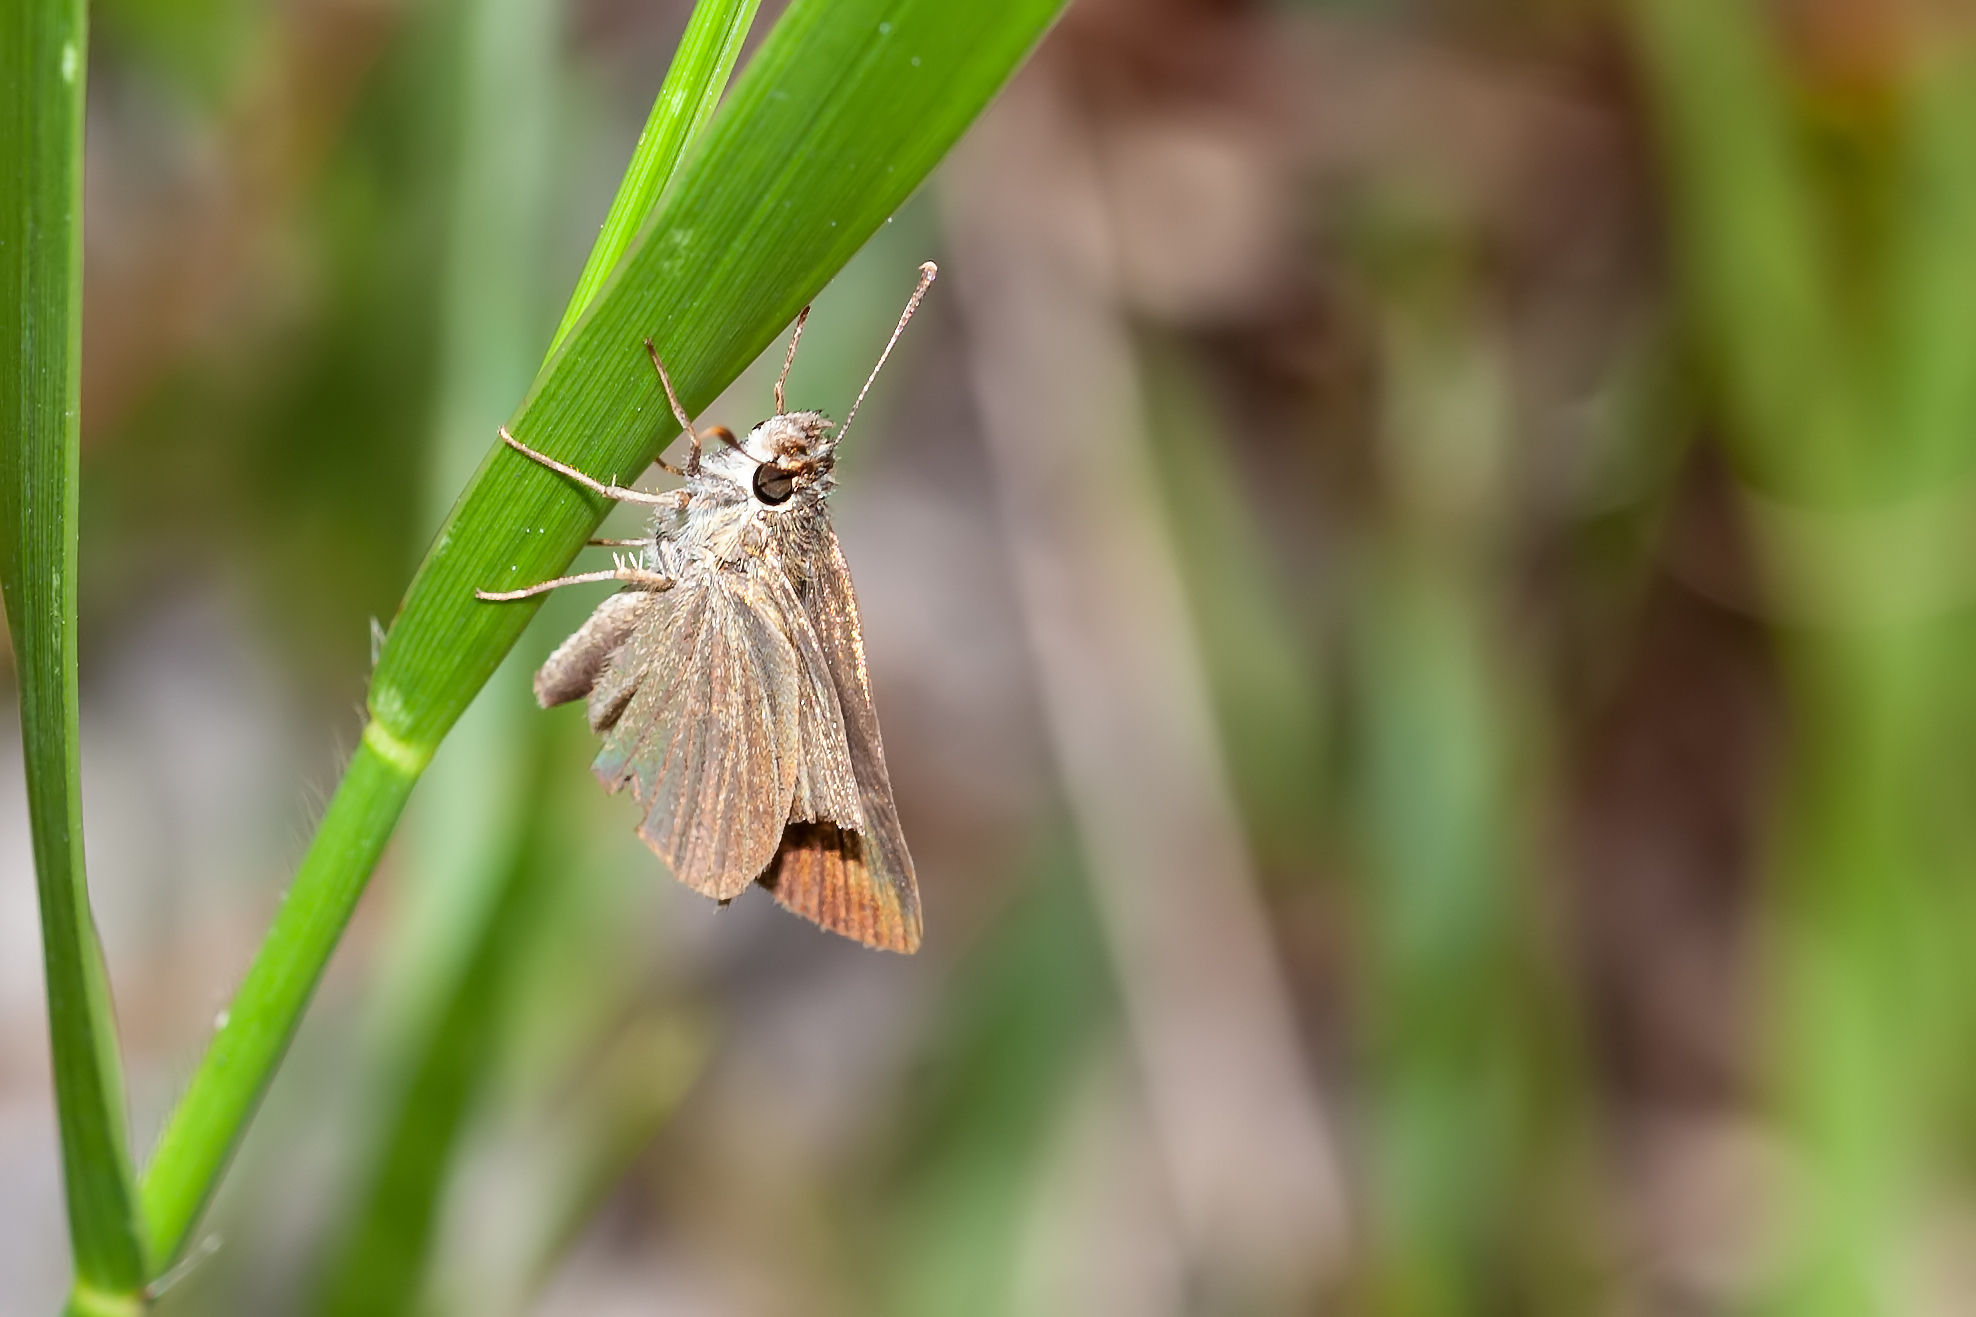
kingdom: Animalia
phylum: Arthropoda
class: Insecta
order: Lepidoptera
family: Hesperiidae
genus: Nastra
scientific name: Nastra lherminier
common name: Swarthy skipper
